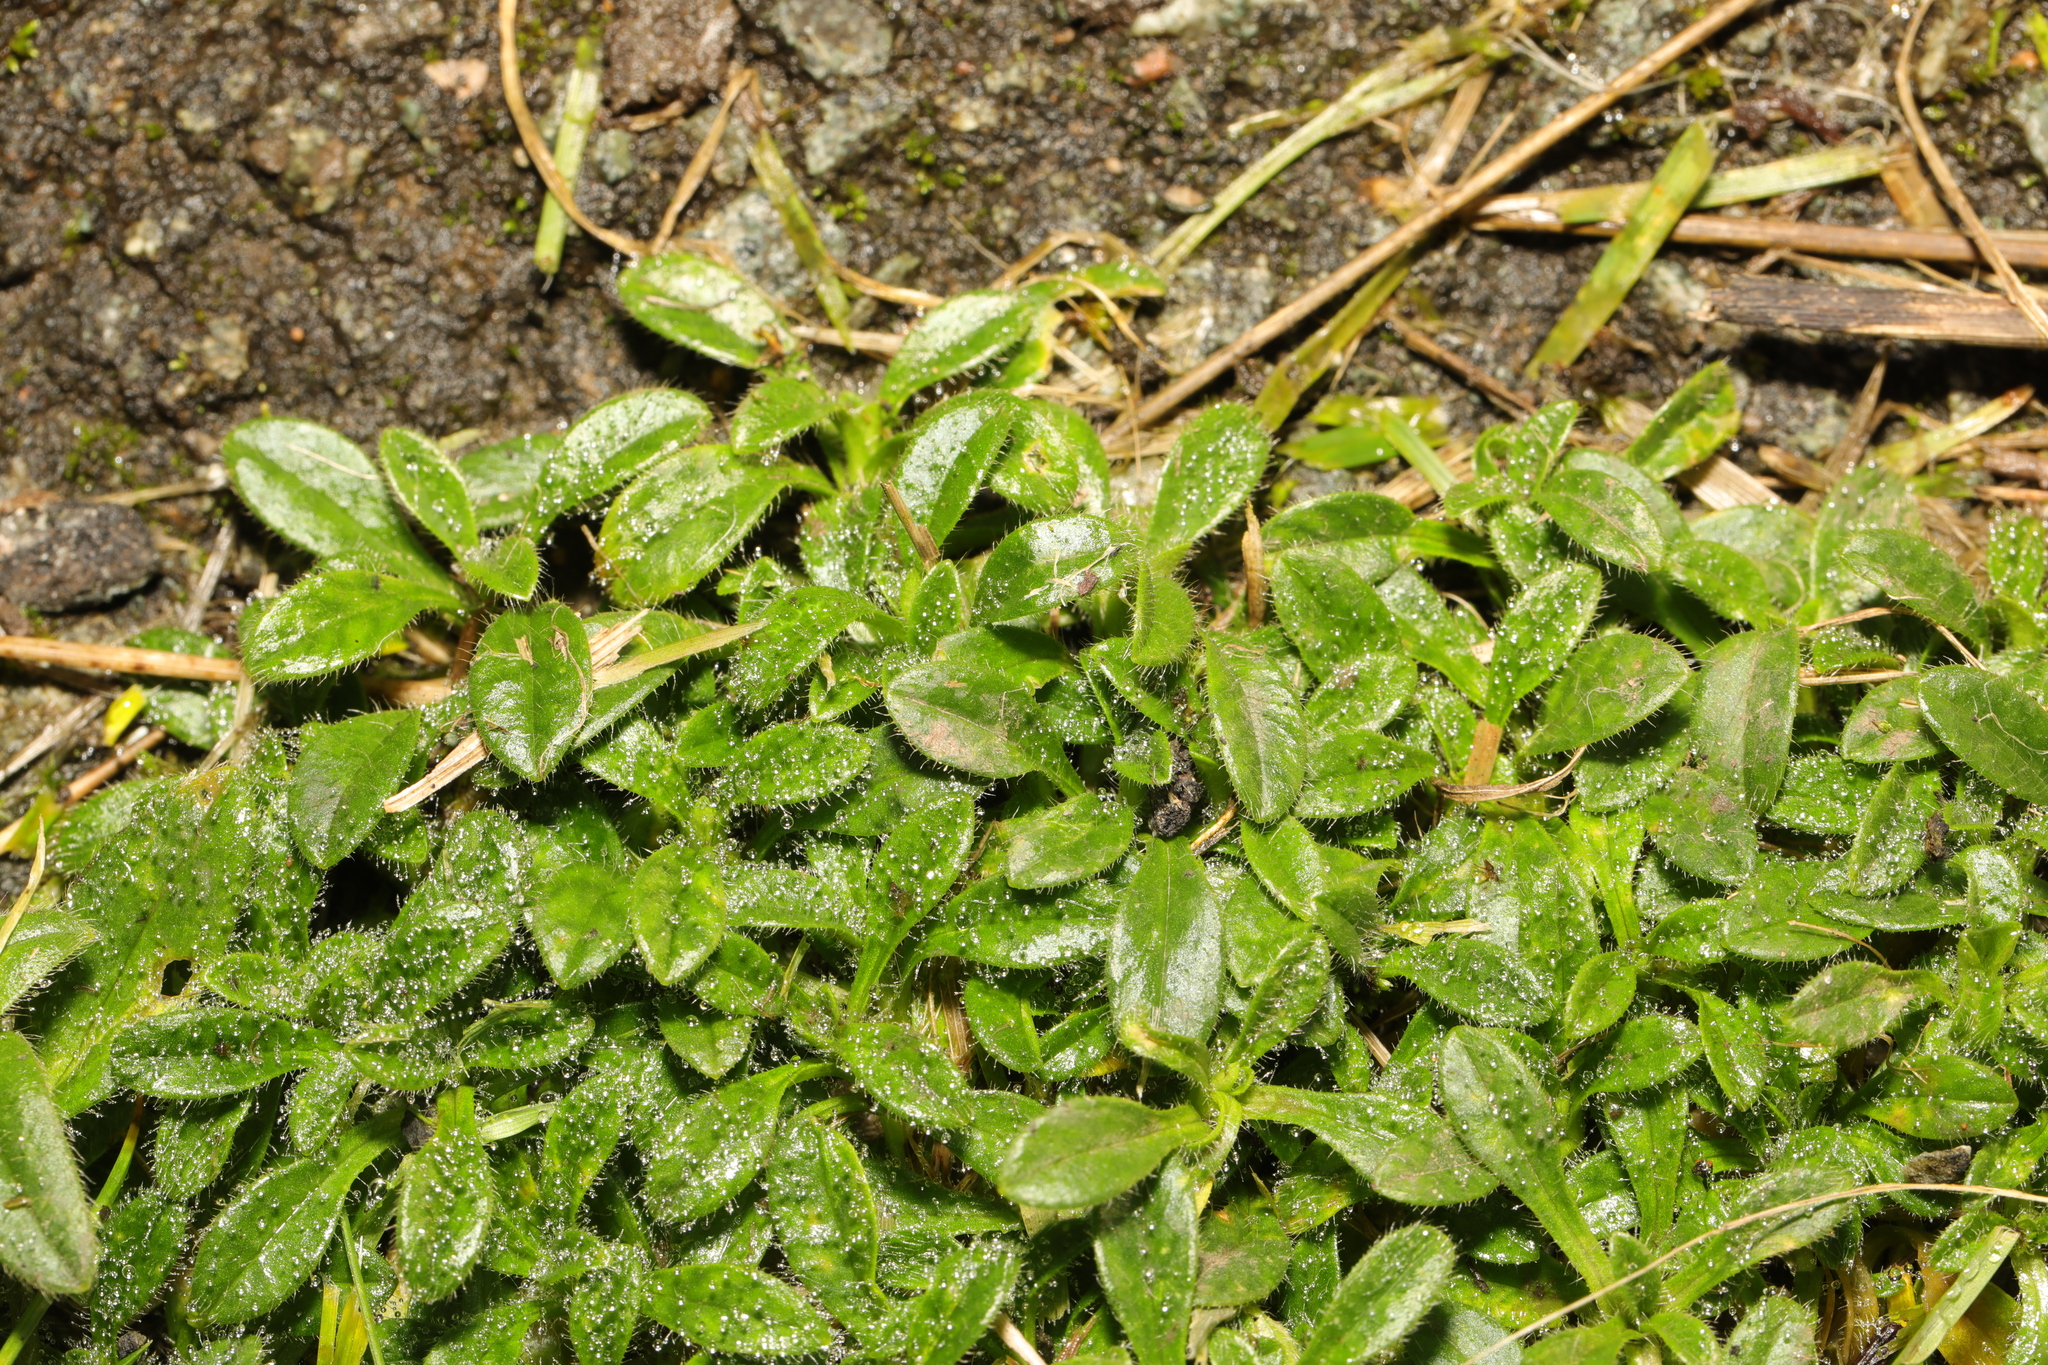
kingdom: Plantae
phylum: Tracheophyta
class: Magnoliopsida
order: Caryophyllales
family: Caryophyllaceae
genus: Cerastium
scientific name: Cerastium fontanum
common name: Common mouse-ear
